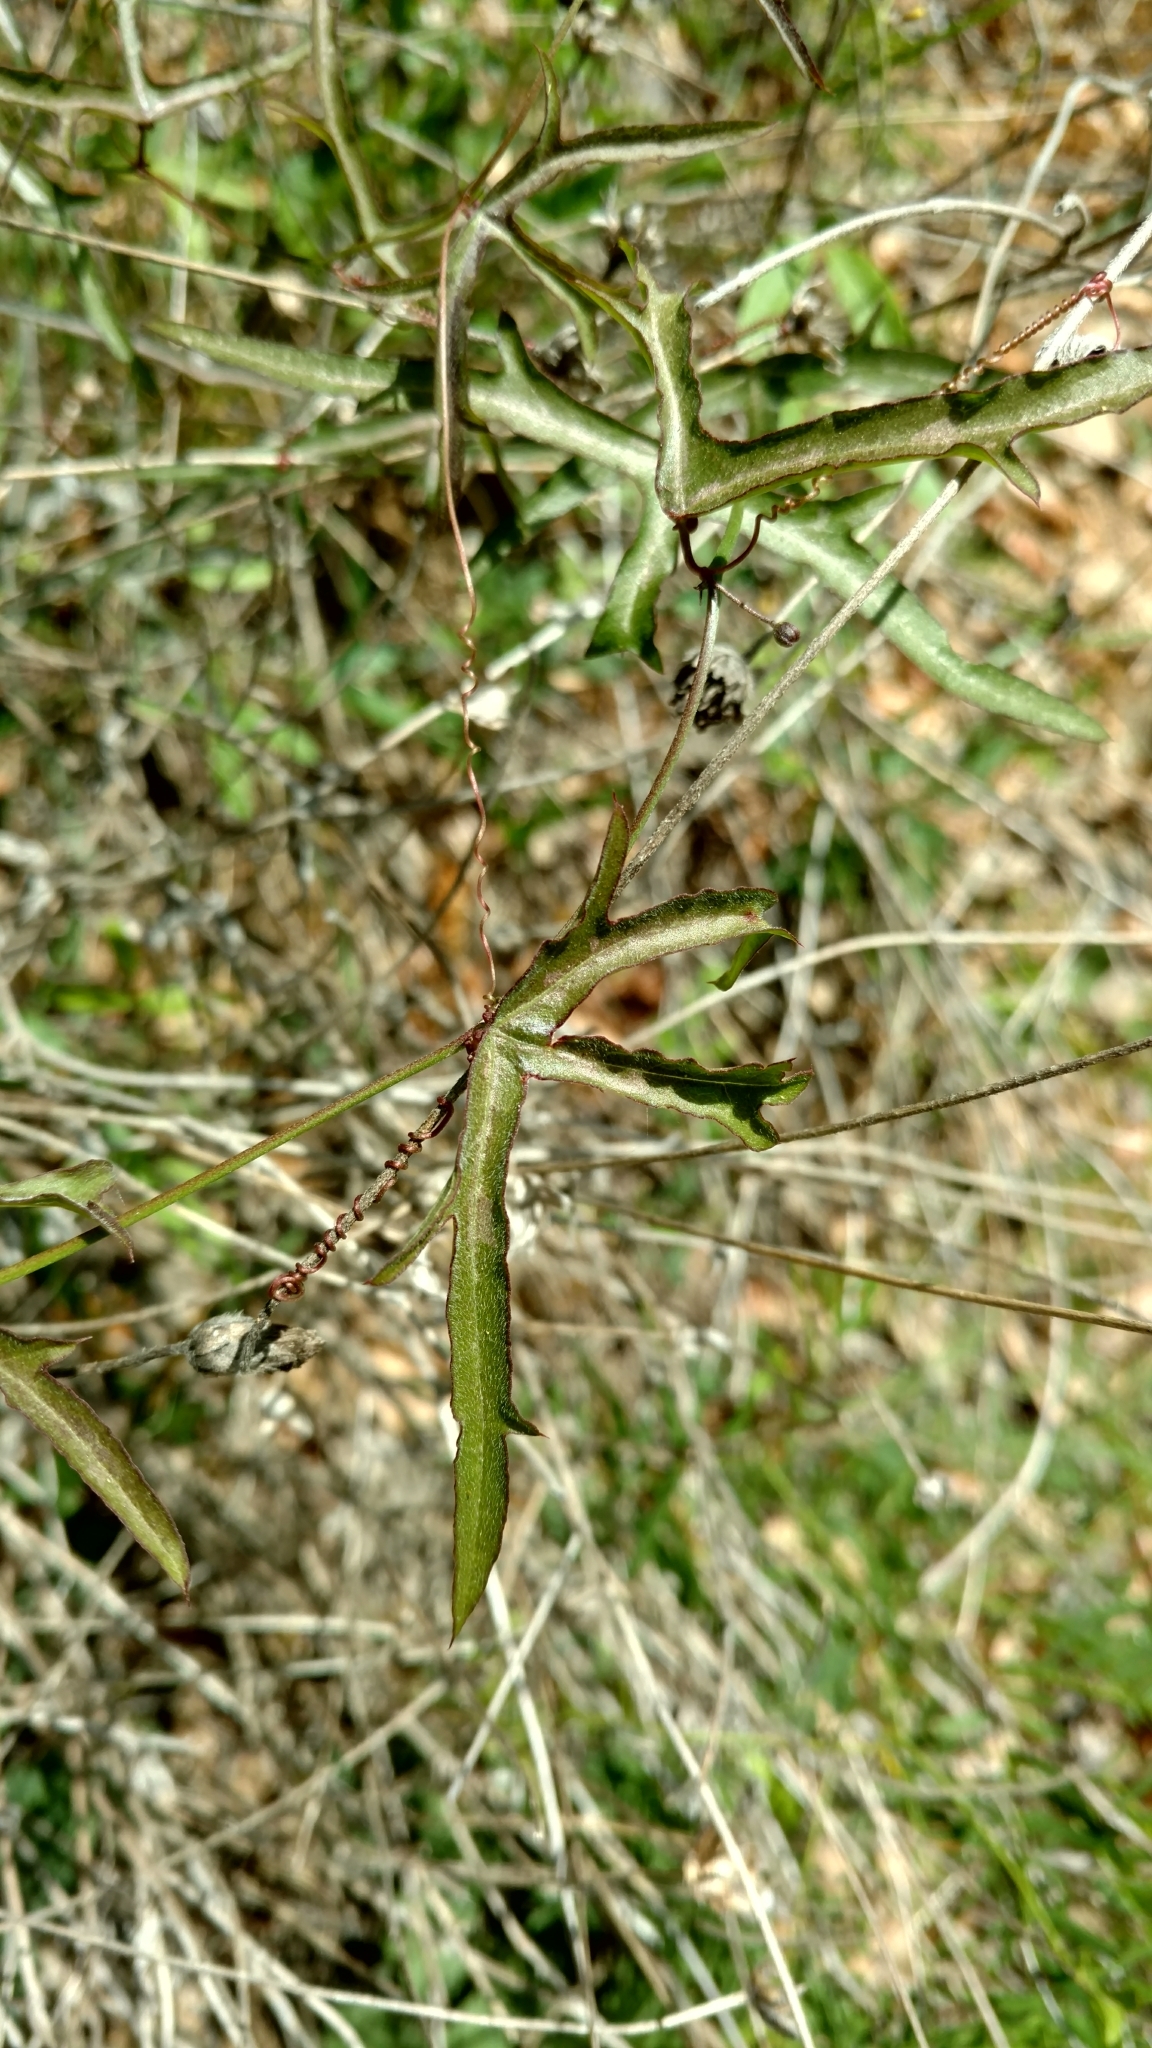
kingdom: Plantae
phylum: Tracheophyta
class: Magnoliopsida
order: Malpighiales
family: Passifloraceae
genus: Passiflora
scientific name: Passiflora tenuiloba
